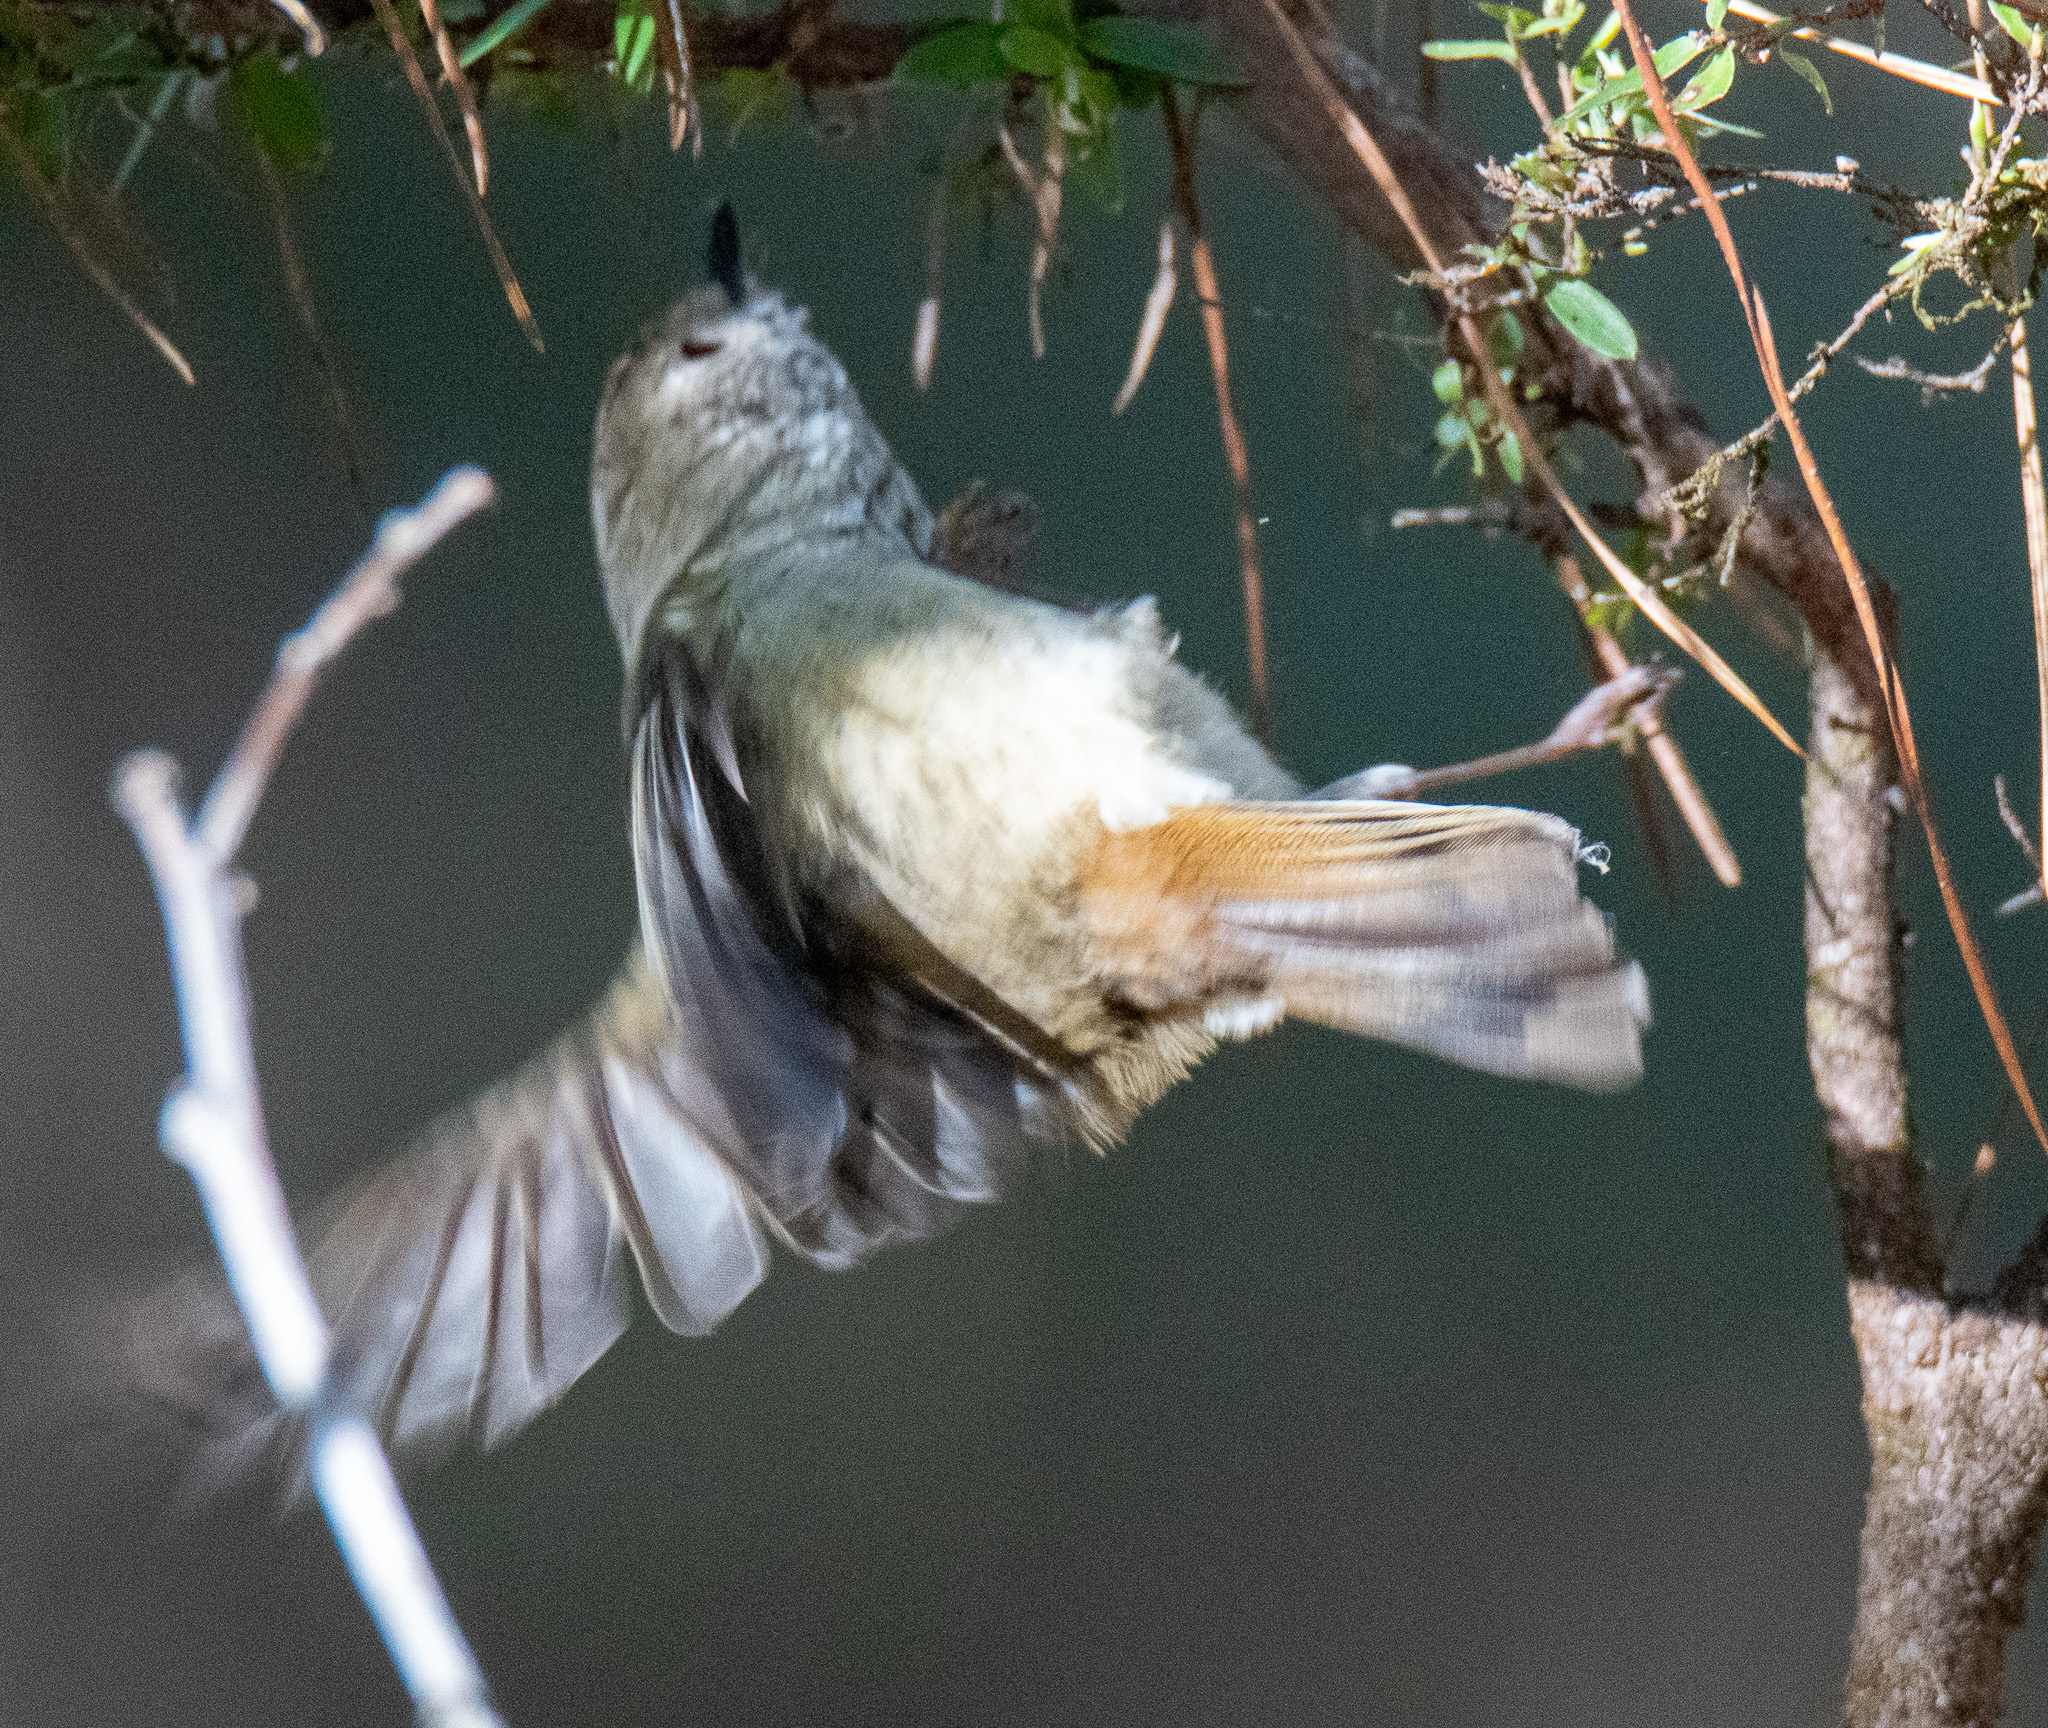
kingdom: Animalia
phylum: Chordata
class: Aves
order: Passeriformes
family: Acanthizidae
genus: Acanthiza
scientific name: Acanthiza pusilla
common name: Brown thornbill
